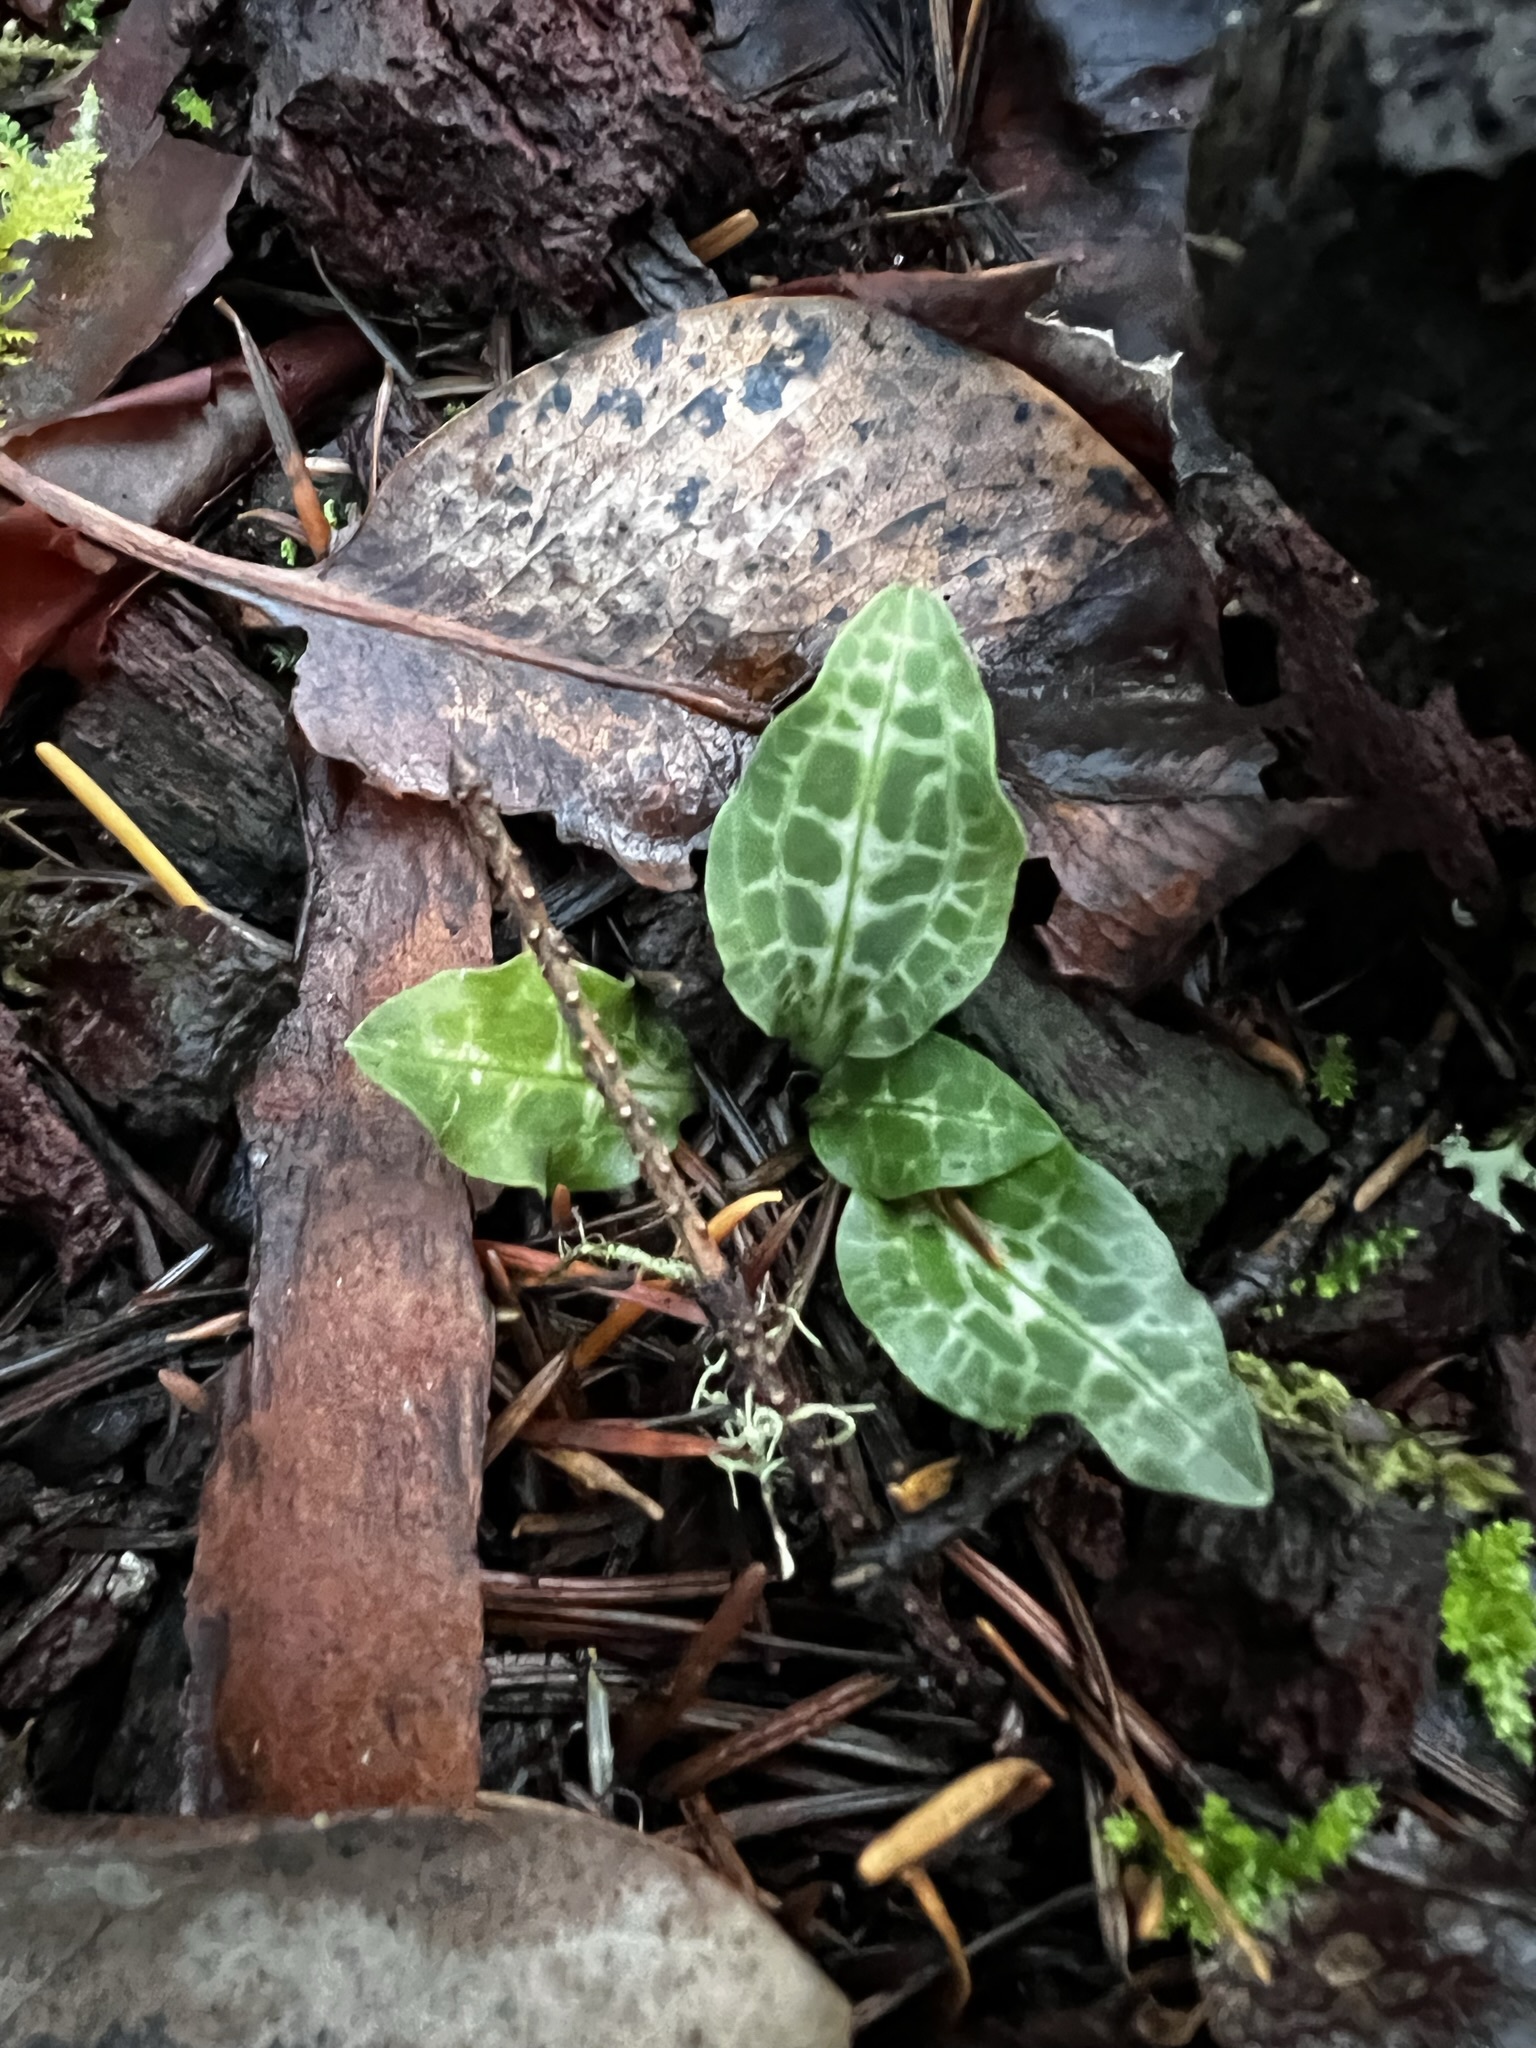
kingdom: Plantae
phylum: Tracheophyta
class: Liliopsida
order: Asparagales
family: Orchidaceae
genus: Goodyera
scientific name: Goodyera oblongifolia
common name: Giant rattlesnake-plantain
